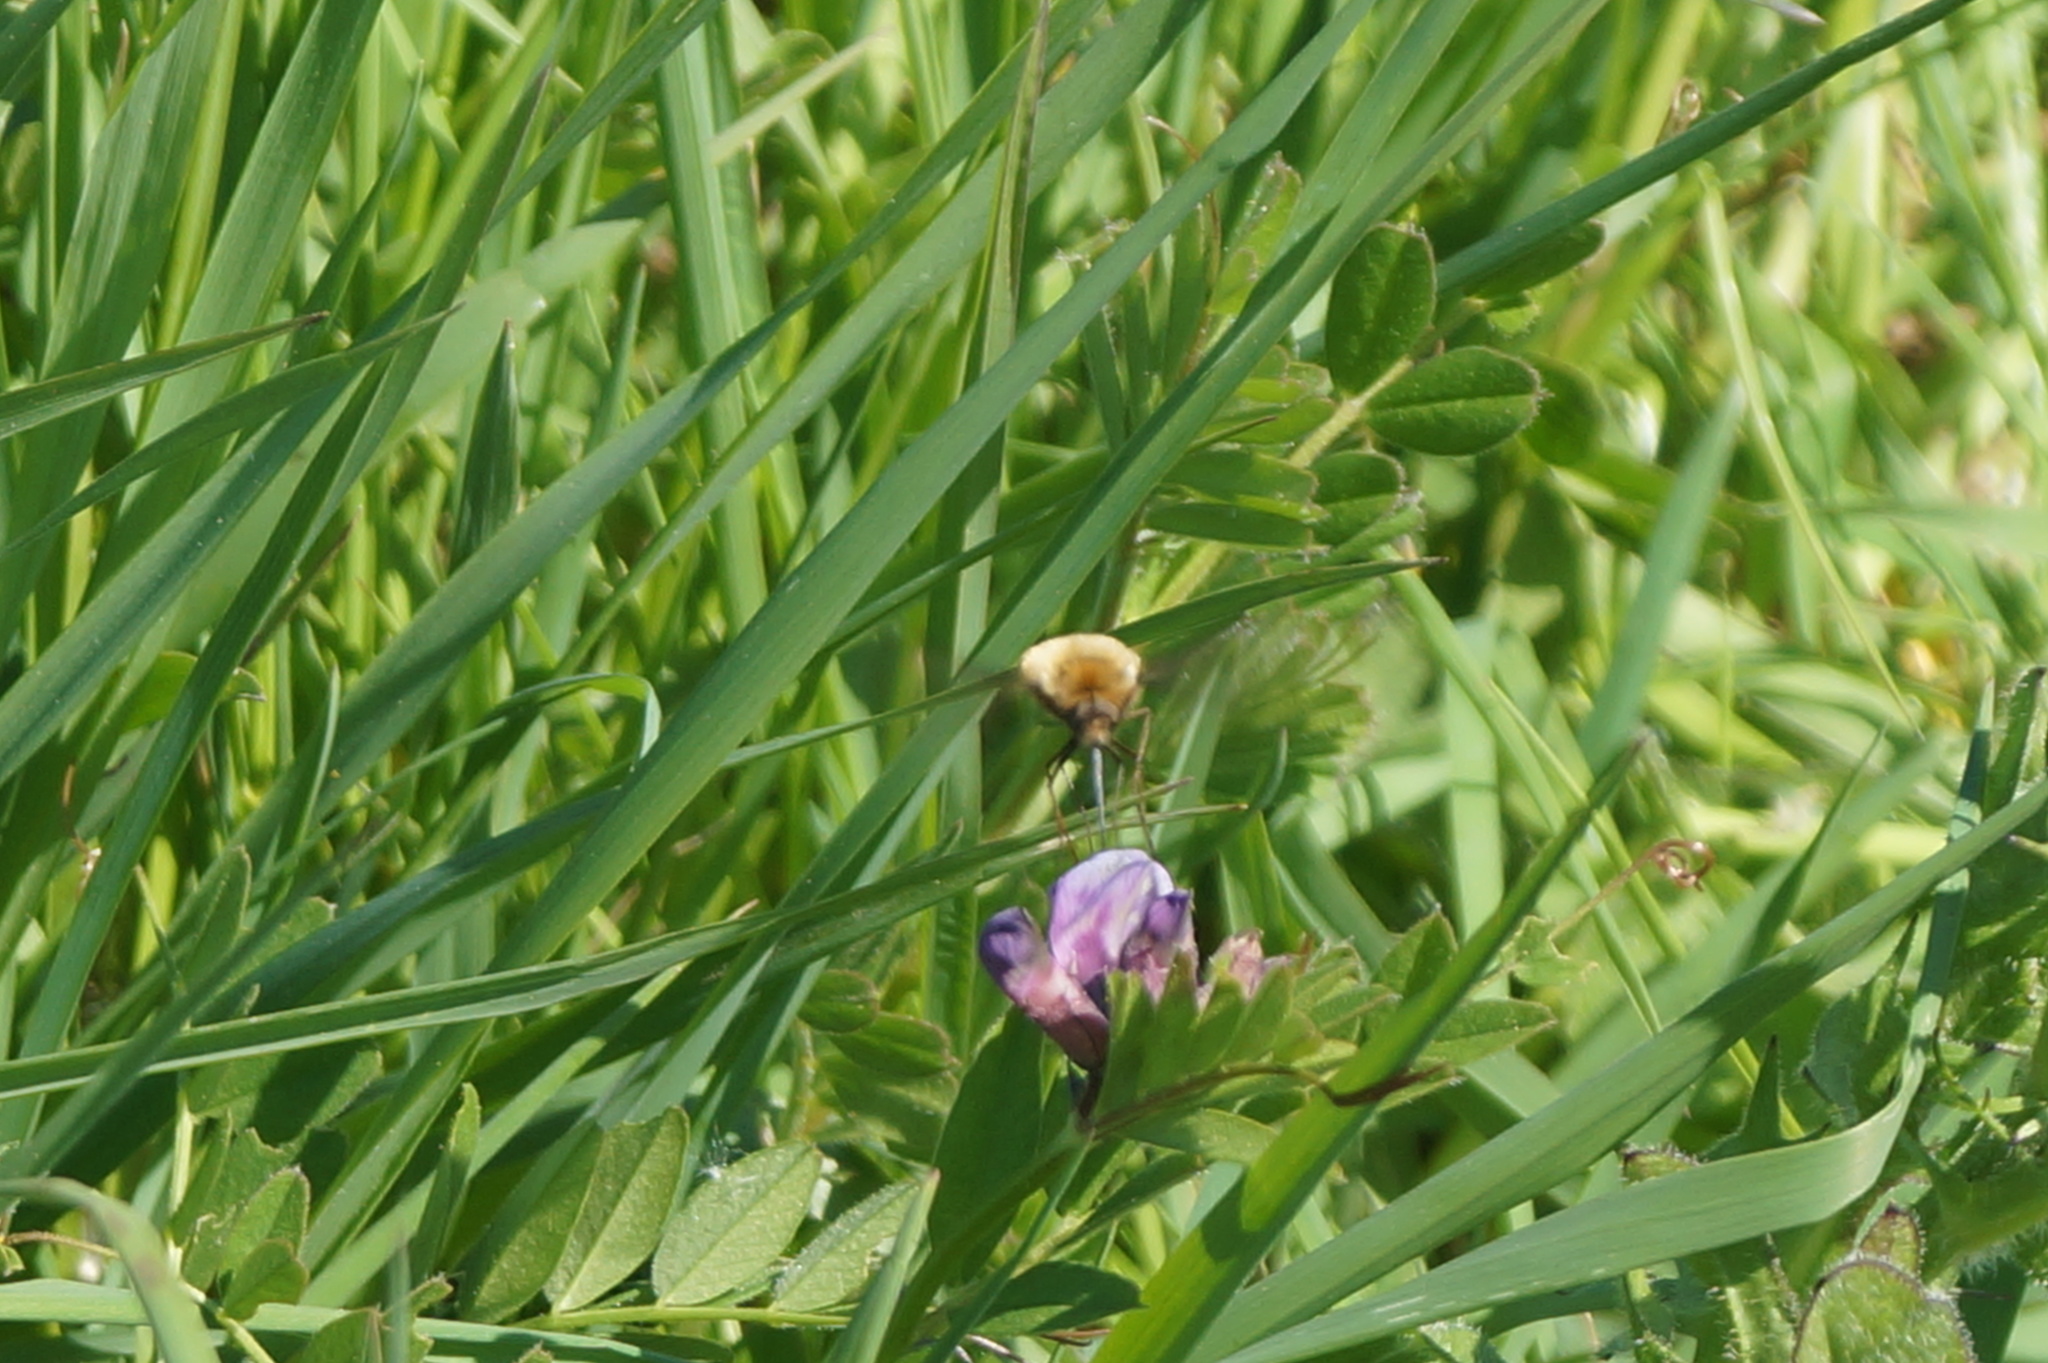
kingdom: Animalia
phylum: Arthropoda
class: Insecta
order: Diptera
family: Bombyliidae
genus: Bombylius
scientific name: Bombylius major
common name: Bee fly
